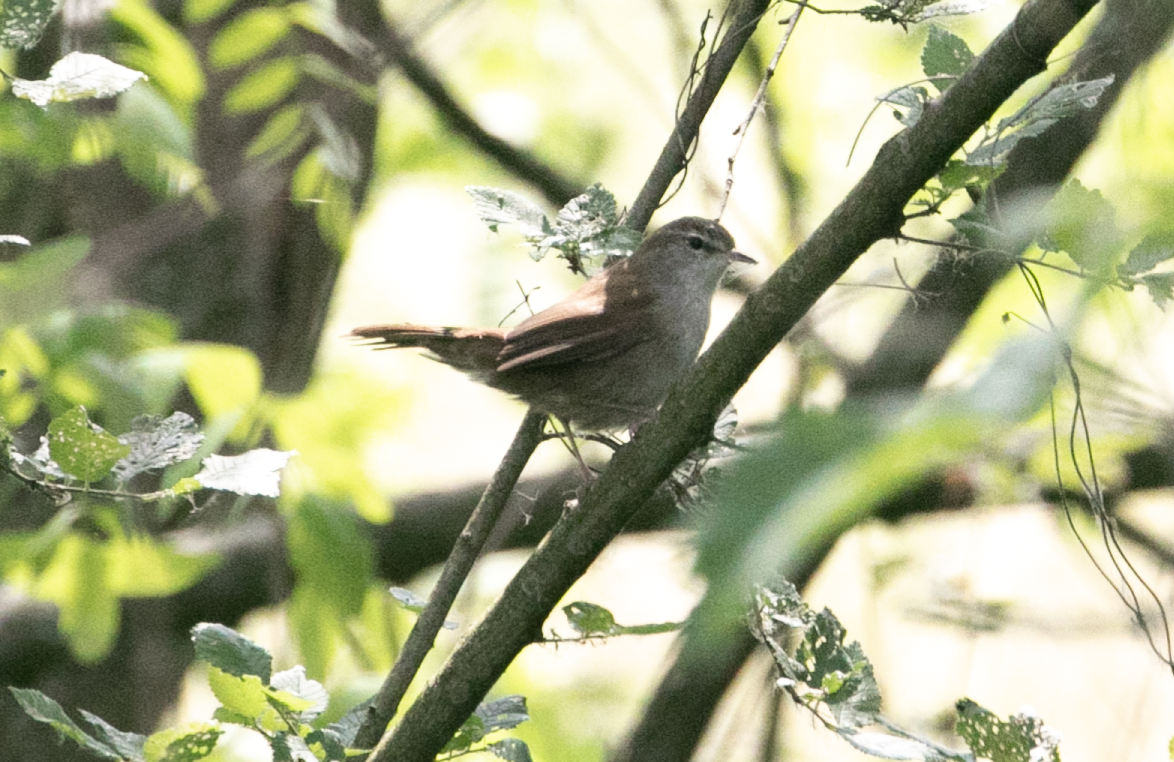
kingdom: Animalia
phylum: Chordata
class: Aves
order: Passeriformes
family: Cettiidae
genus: Cettia
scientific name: Cettia cetti
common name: Cetti's warbler
